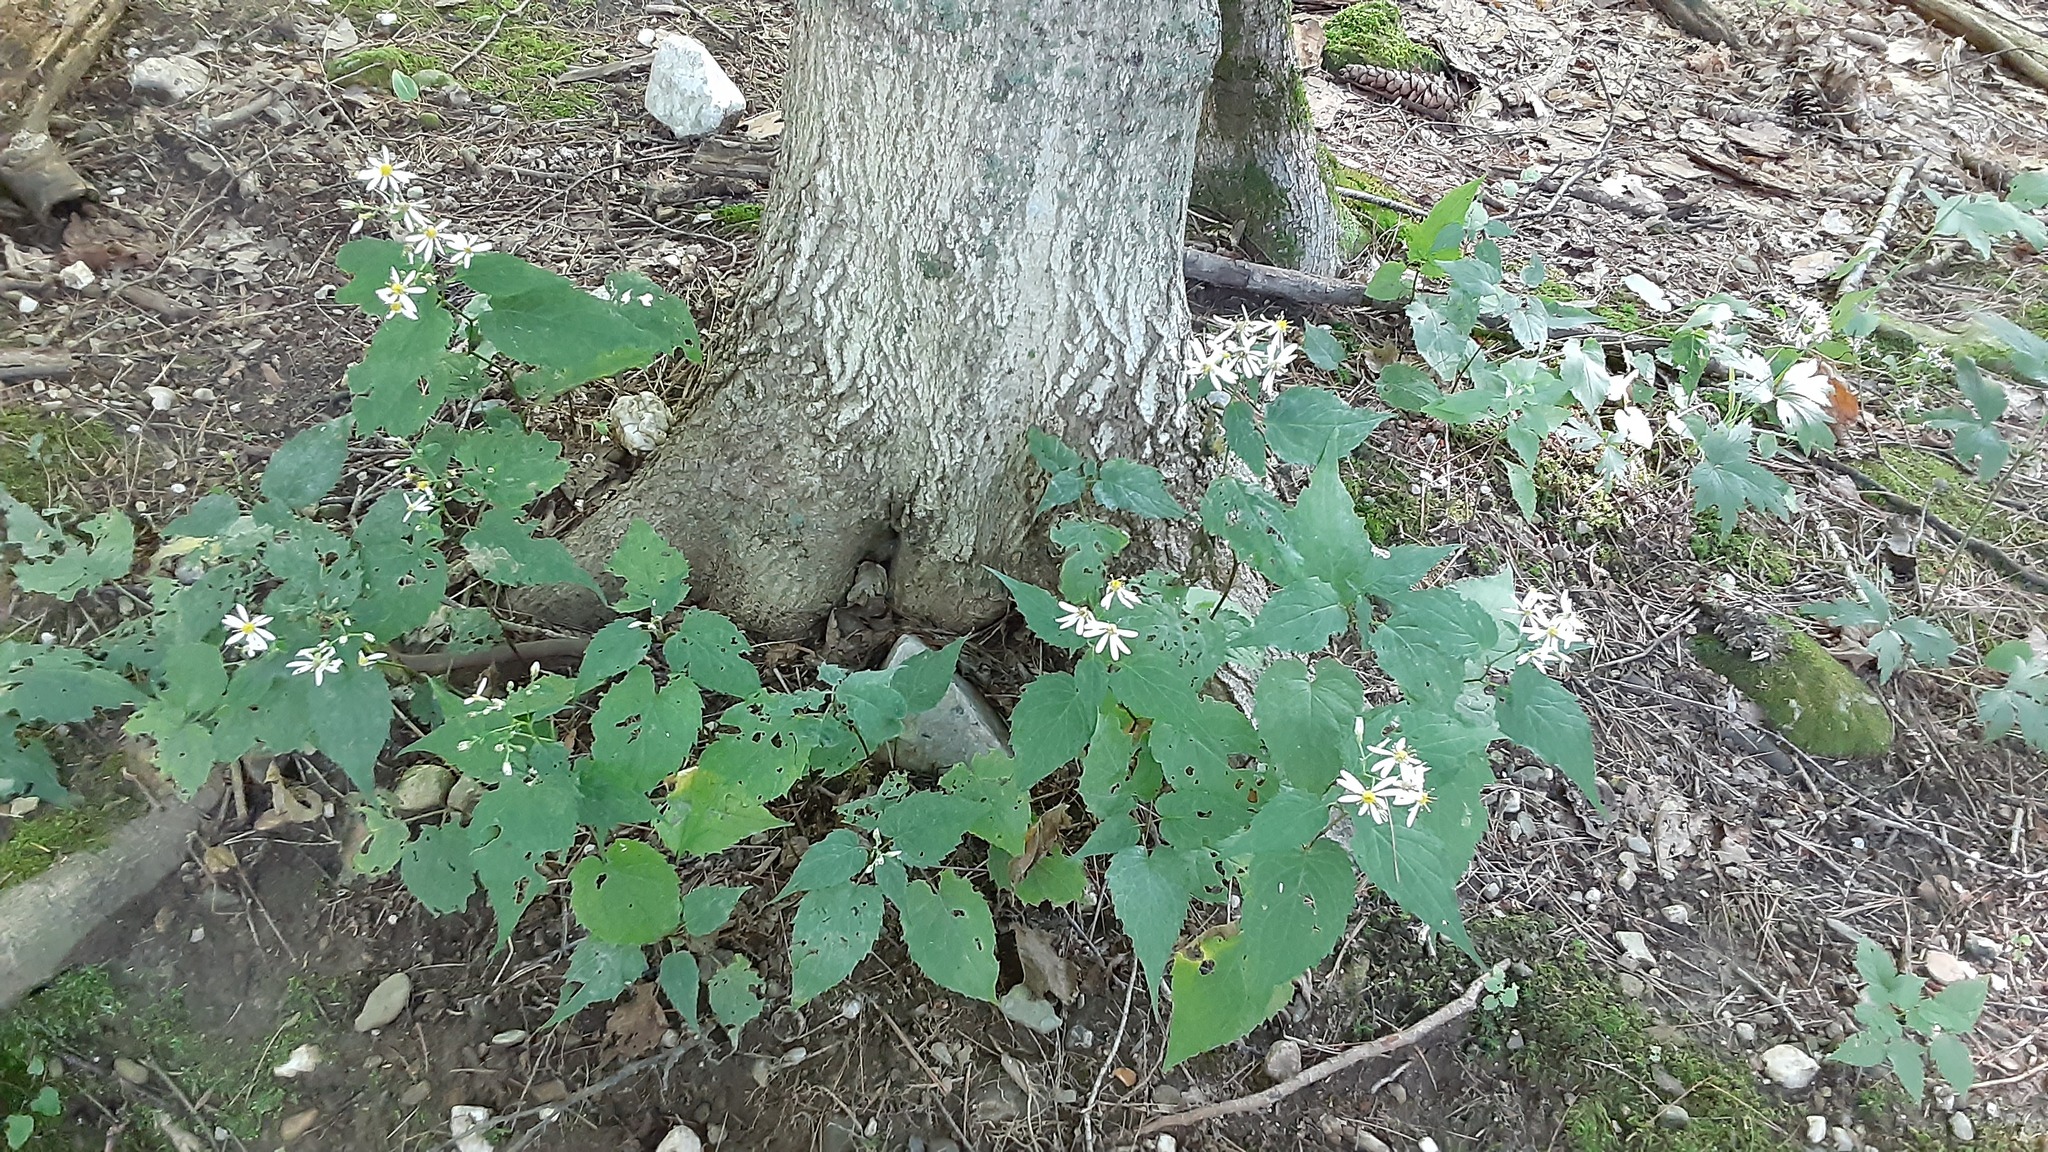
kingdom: Plantae
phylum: Tracheophyta
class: Magnoliopsida
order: Asterales
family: Asteraceae
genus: Eurybia
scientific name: Eurybia divaricata
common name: White wood aster
